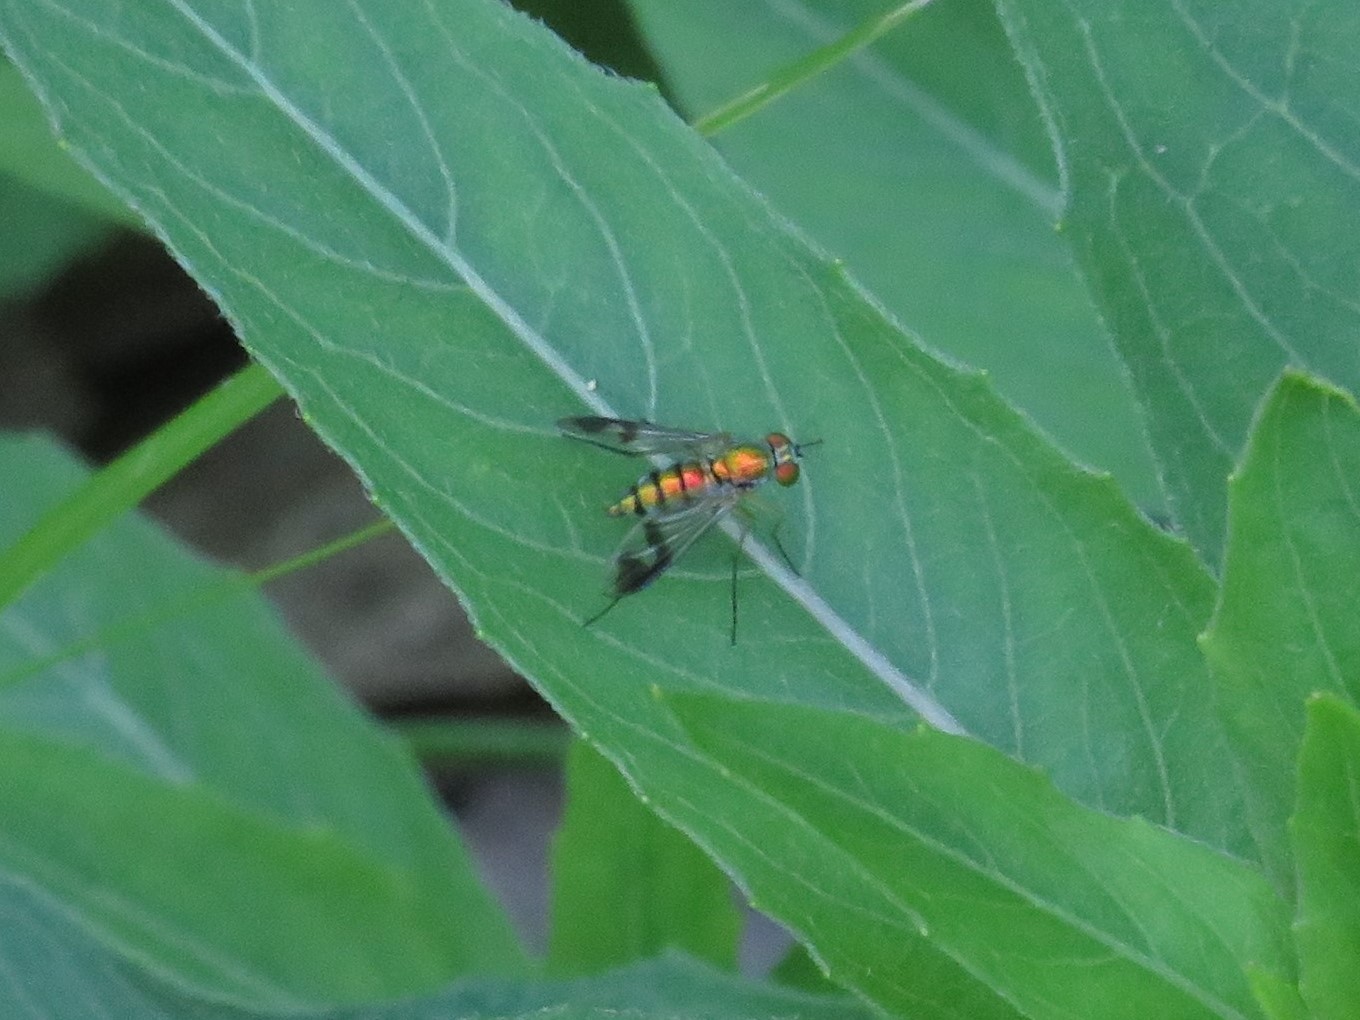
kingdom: Animalia
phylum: Arthropoda
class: Insecta
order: Diptera
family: Dolichopodidae
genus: Condylostylus
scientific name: Condylostylus
